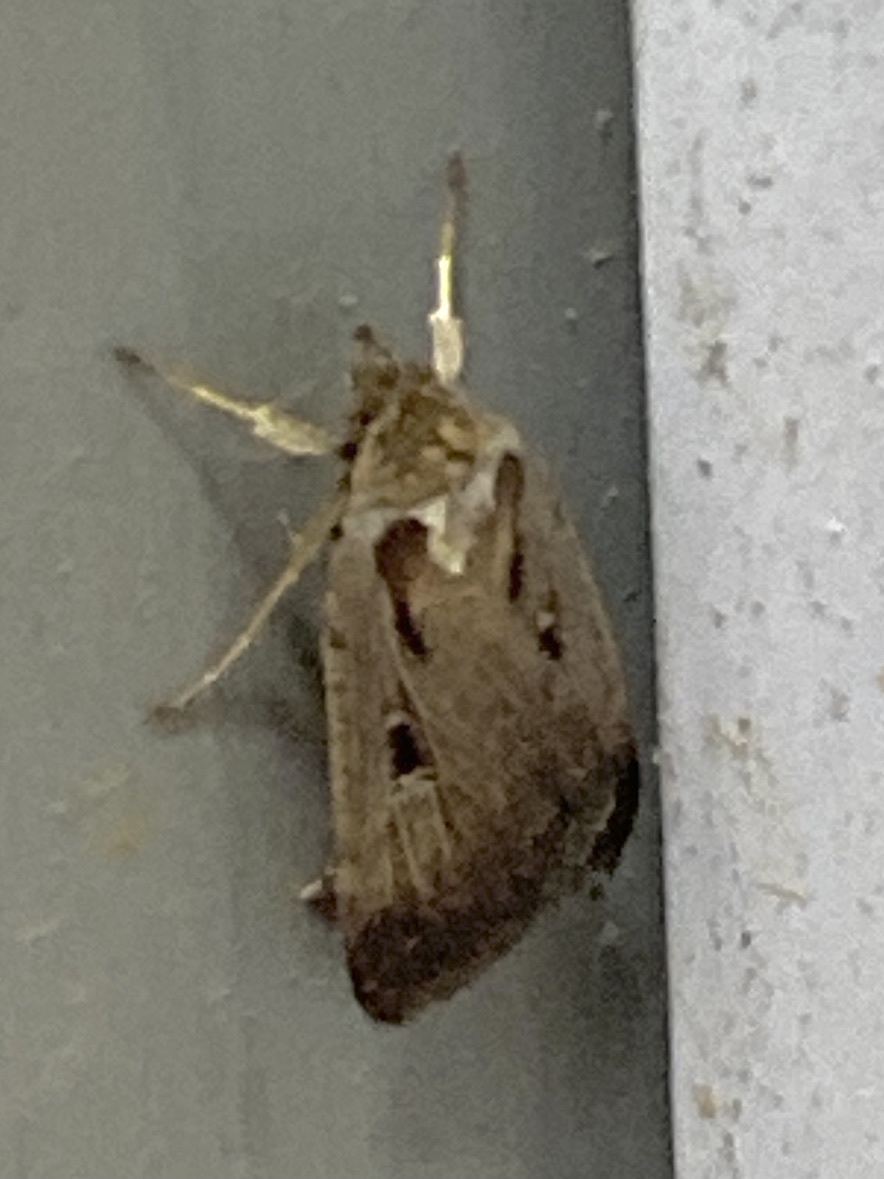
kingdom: Animalia
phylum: Arthropoda
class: Insecta
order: Lepidoptera
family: Noctuidae
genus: Tathorhynchus
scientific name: Tathorhynchus exsiccata
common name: Levant blackneck moth
